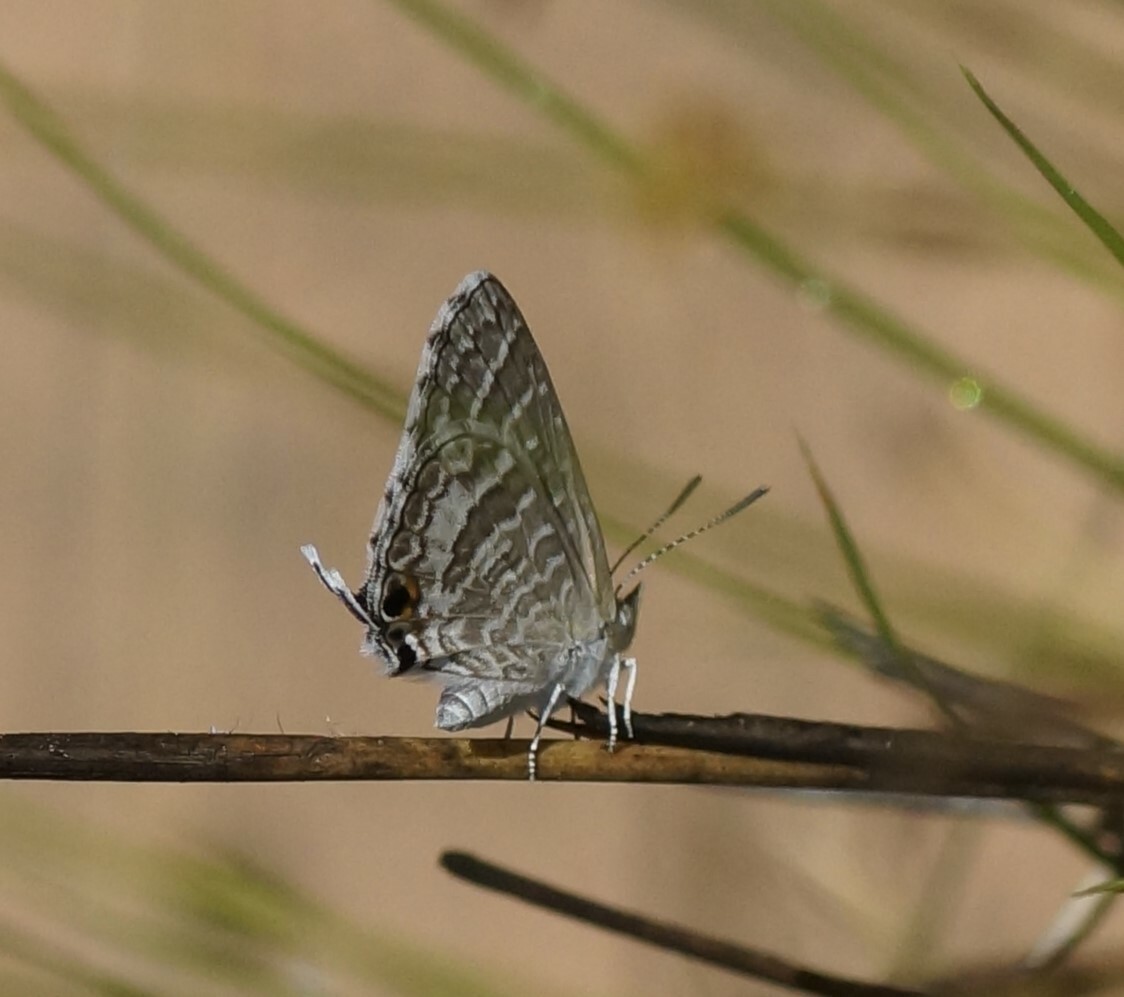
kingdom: Animalia
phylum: Arthropoda
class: Insecta
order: Lepidoptera
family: Lycaenidae
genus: Theclinesthes
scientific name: Theclinesthes miskini
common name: Wattle blue
